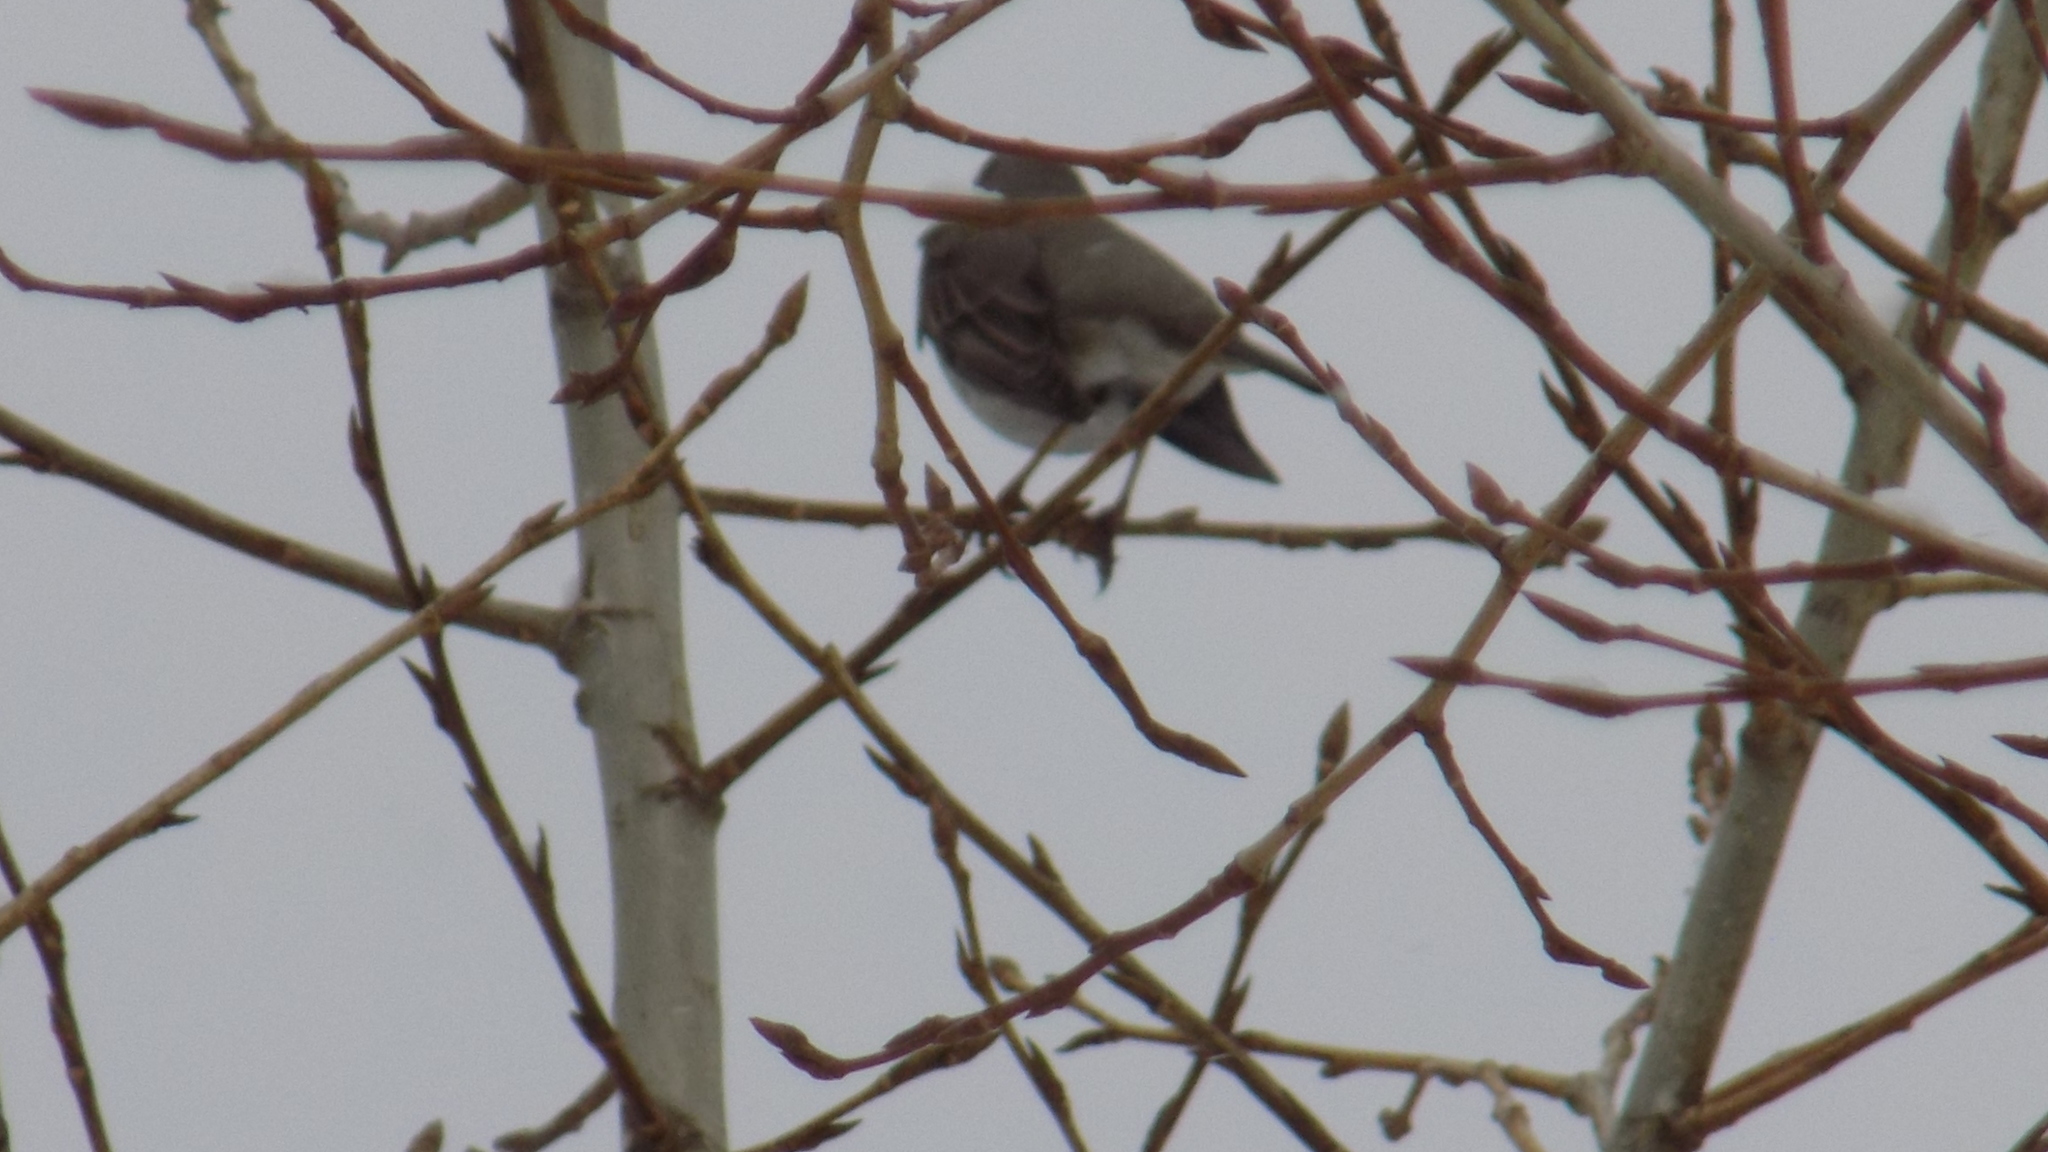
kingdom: Animalia
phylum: Chordata
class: Aves
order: Passeriformes
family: Turdidae
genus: Turdus
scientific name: Turdus atrogularis
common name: Black-throated thrush
